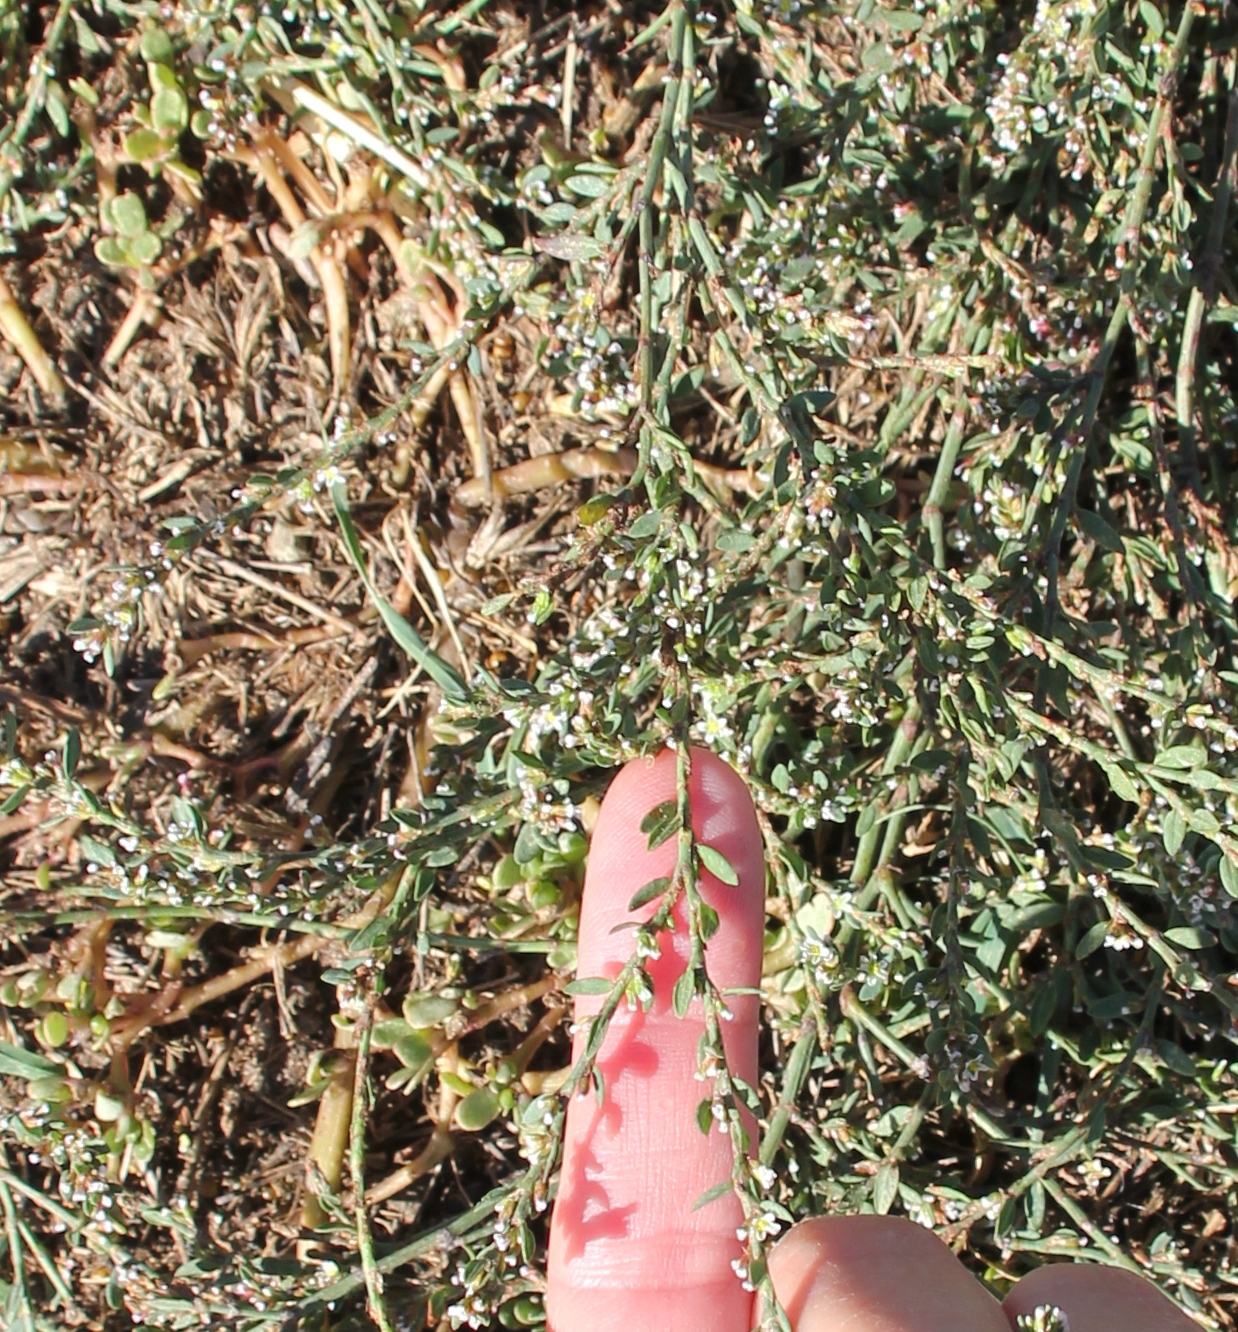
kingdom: Plantae
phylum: Tracheophyta
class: Magnoliopsida
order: Caryophyllales
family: Polygonaceae
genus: Polygonum
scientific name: Polygonum aviculare
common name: Prostrate knotweed
